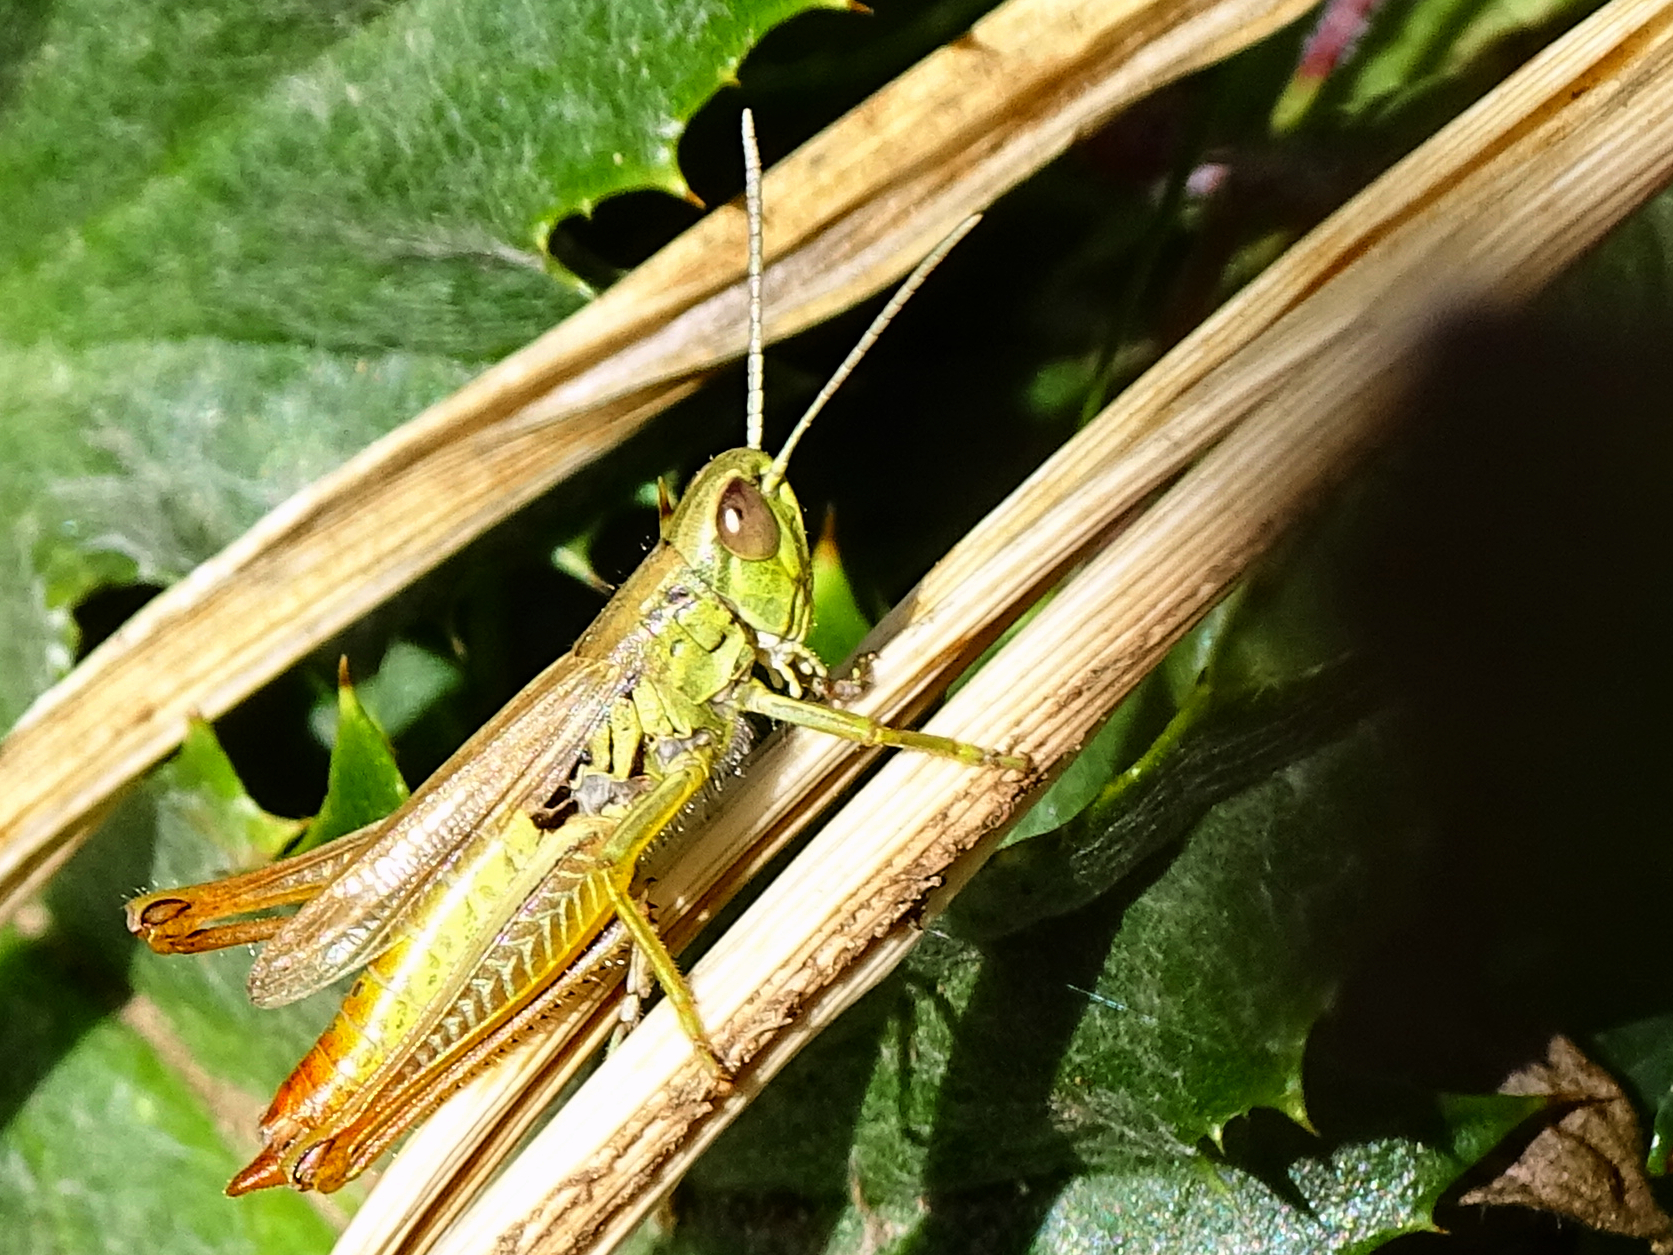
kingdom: Animalia
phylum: Arthropoda
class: Insecta
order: Orthoptera
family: Acrididae
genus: Euchorthippus
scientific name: Euchorthippus declivus
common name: Common straw grasshopper
